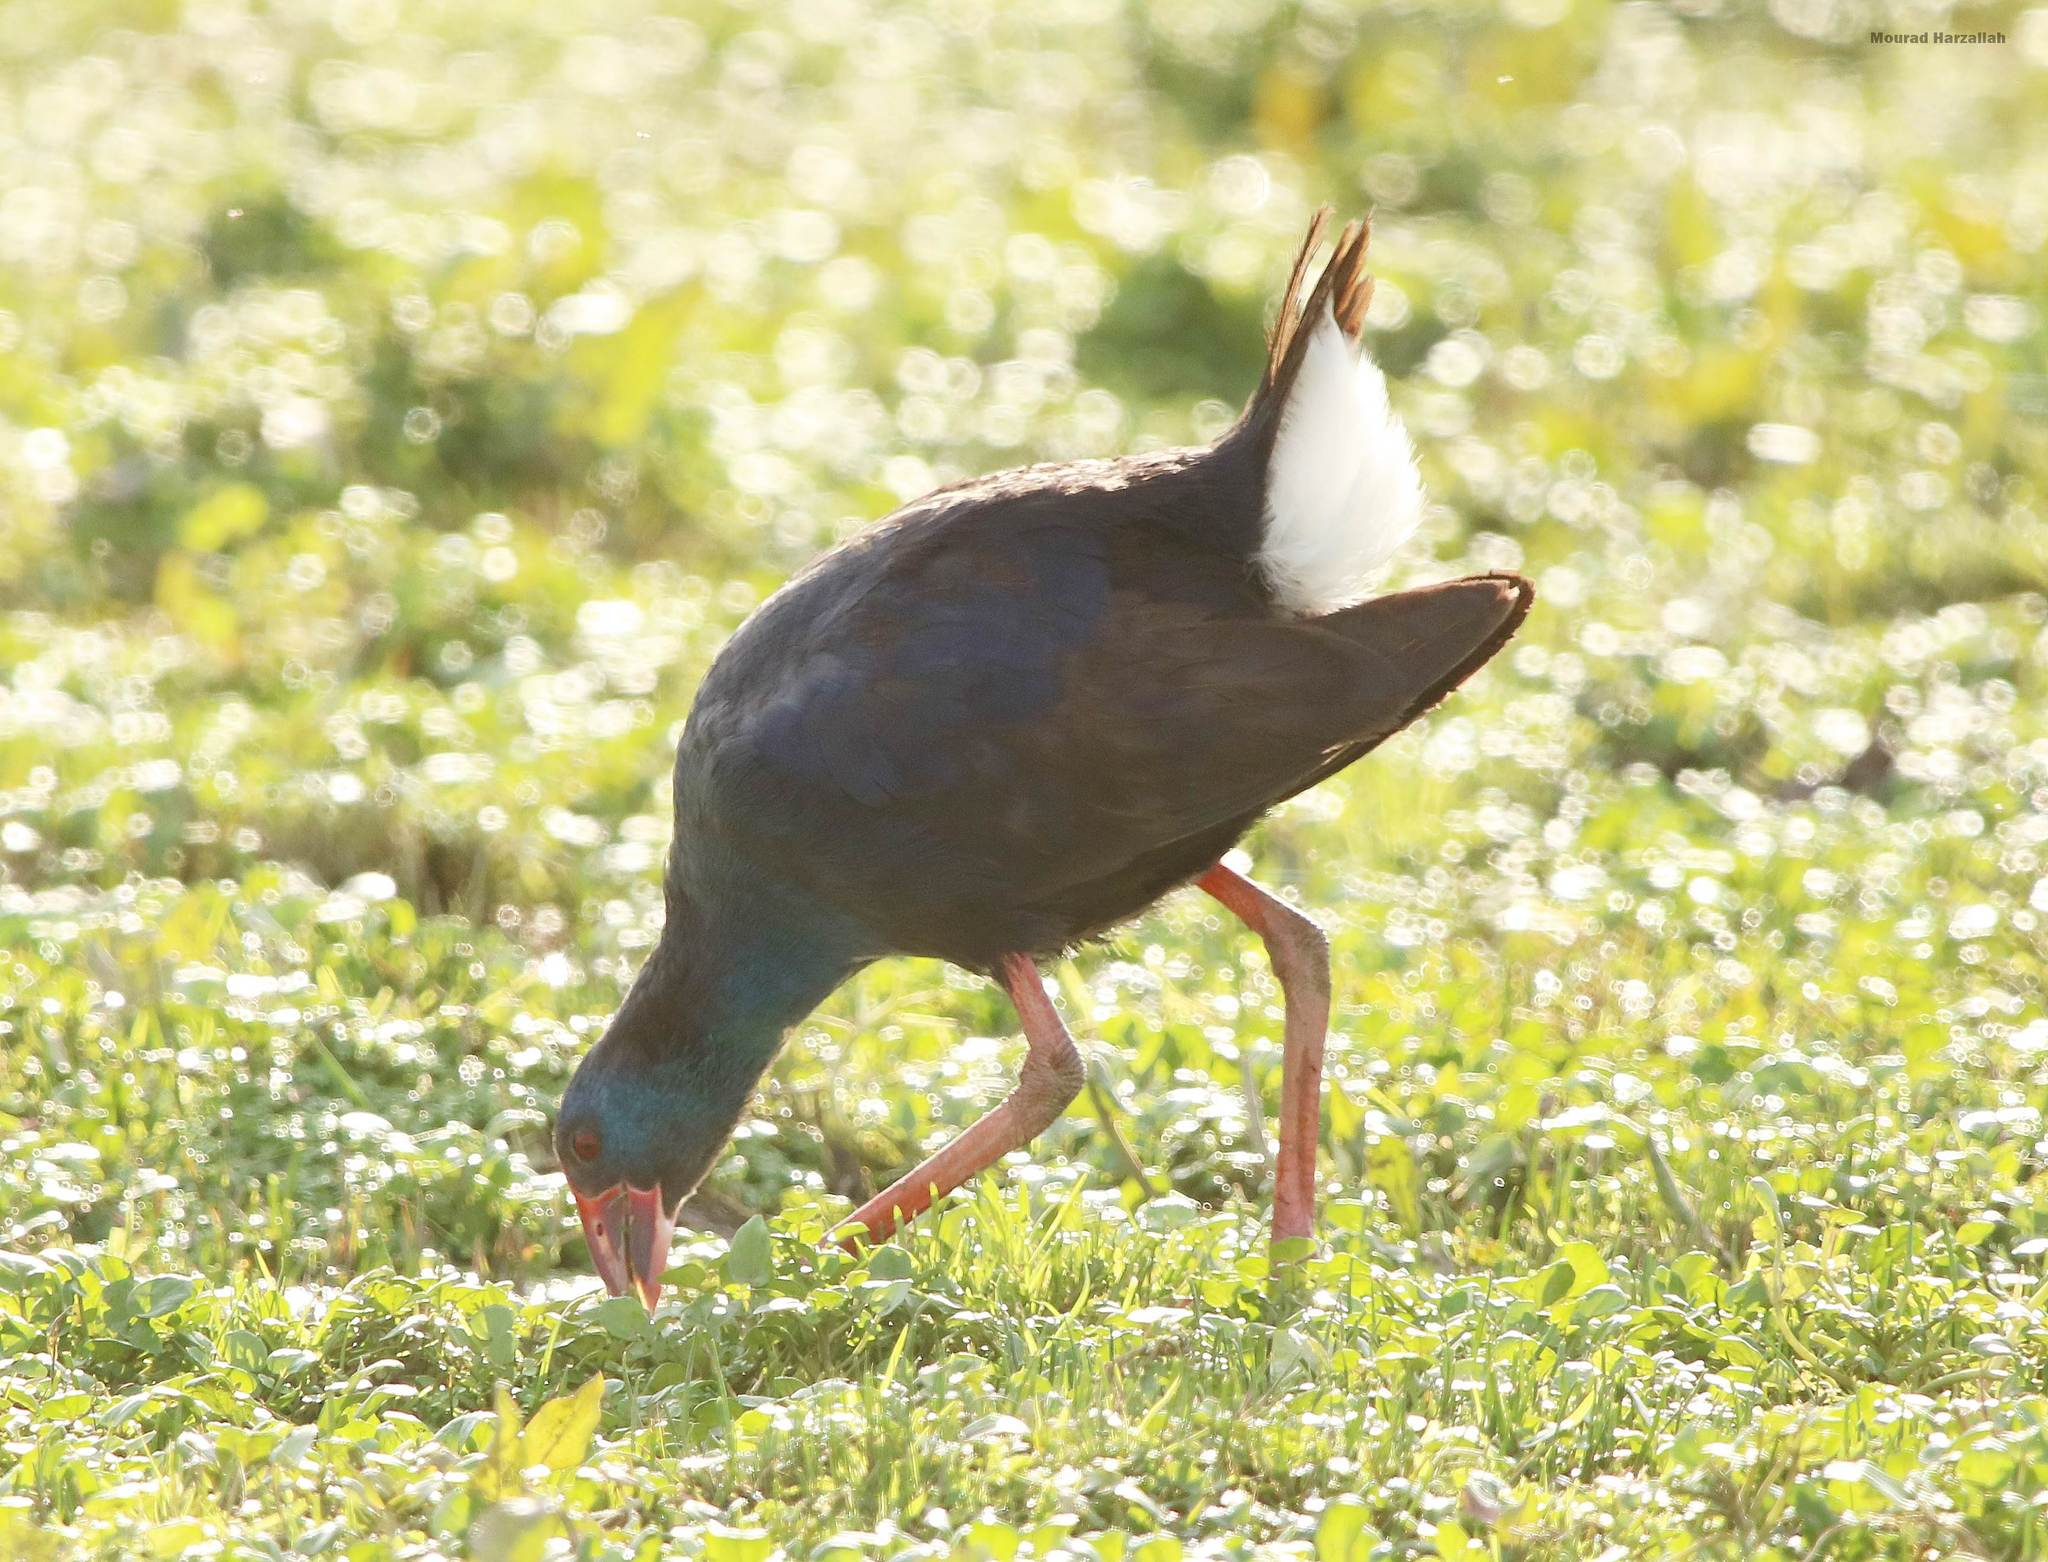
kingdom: Animalia
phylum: Chordata
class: Aves
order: Gruiformes
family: Rallidae
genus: Porphyrio
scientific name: Porphyrio porphyrio
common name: Purple swamphen
